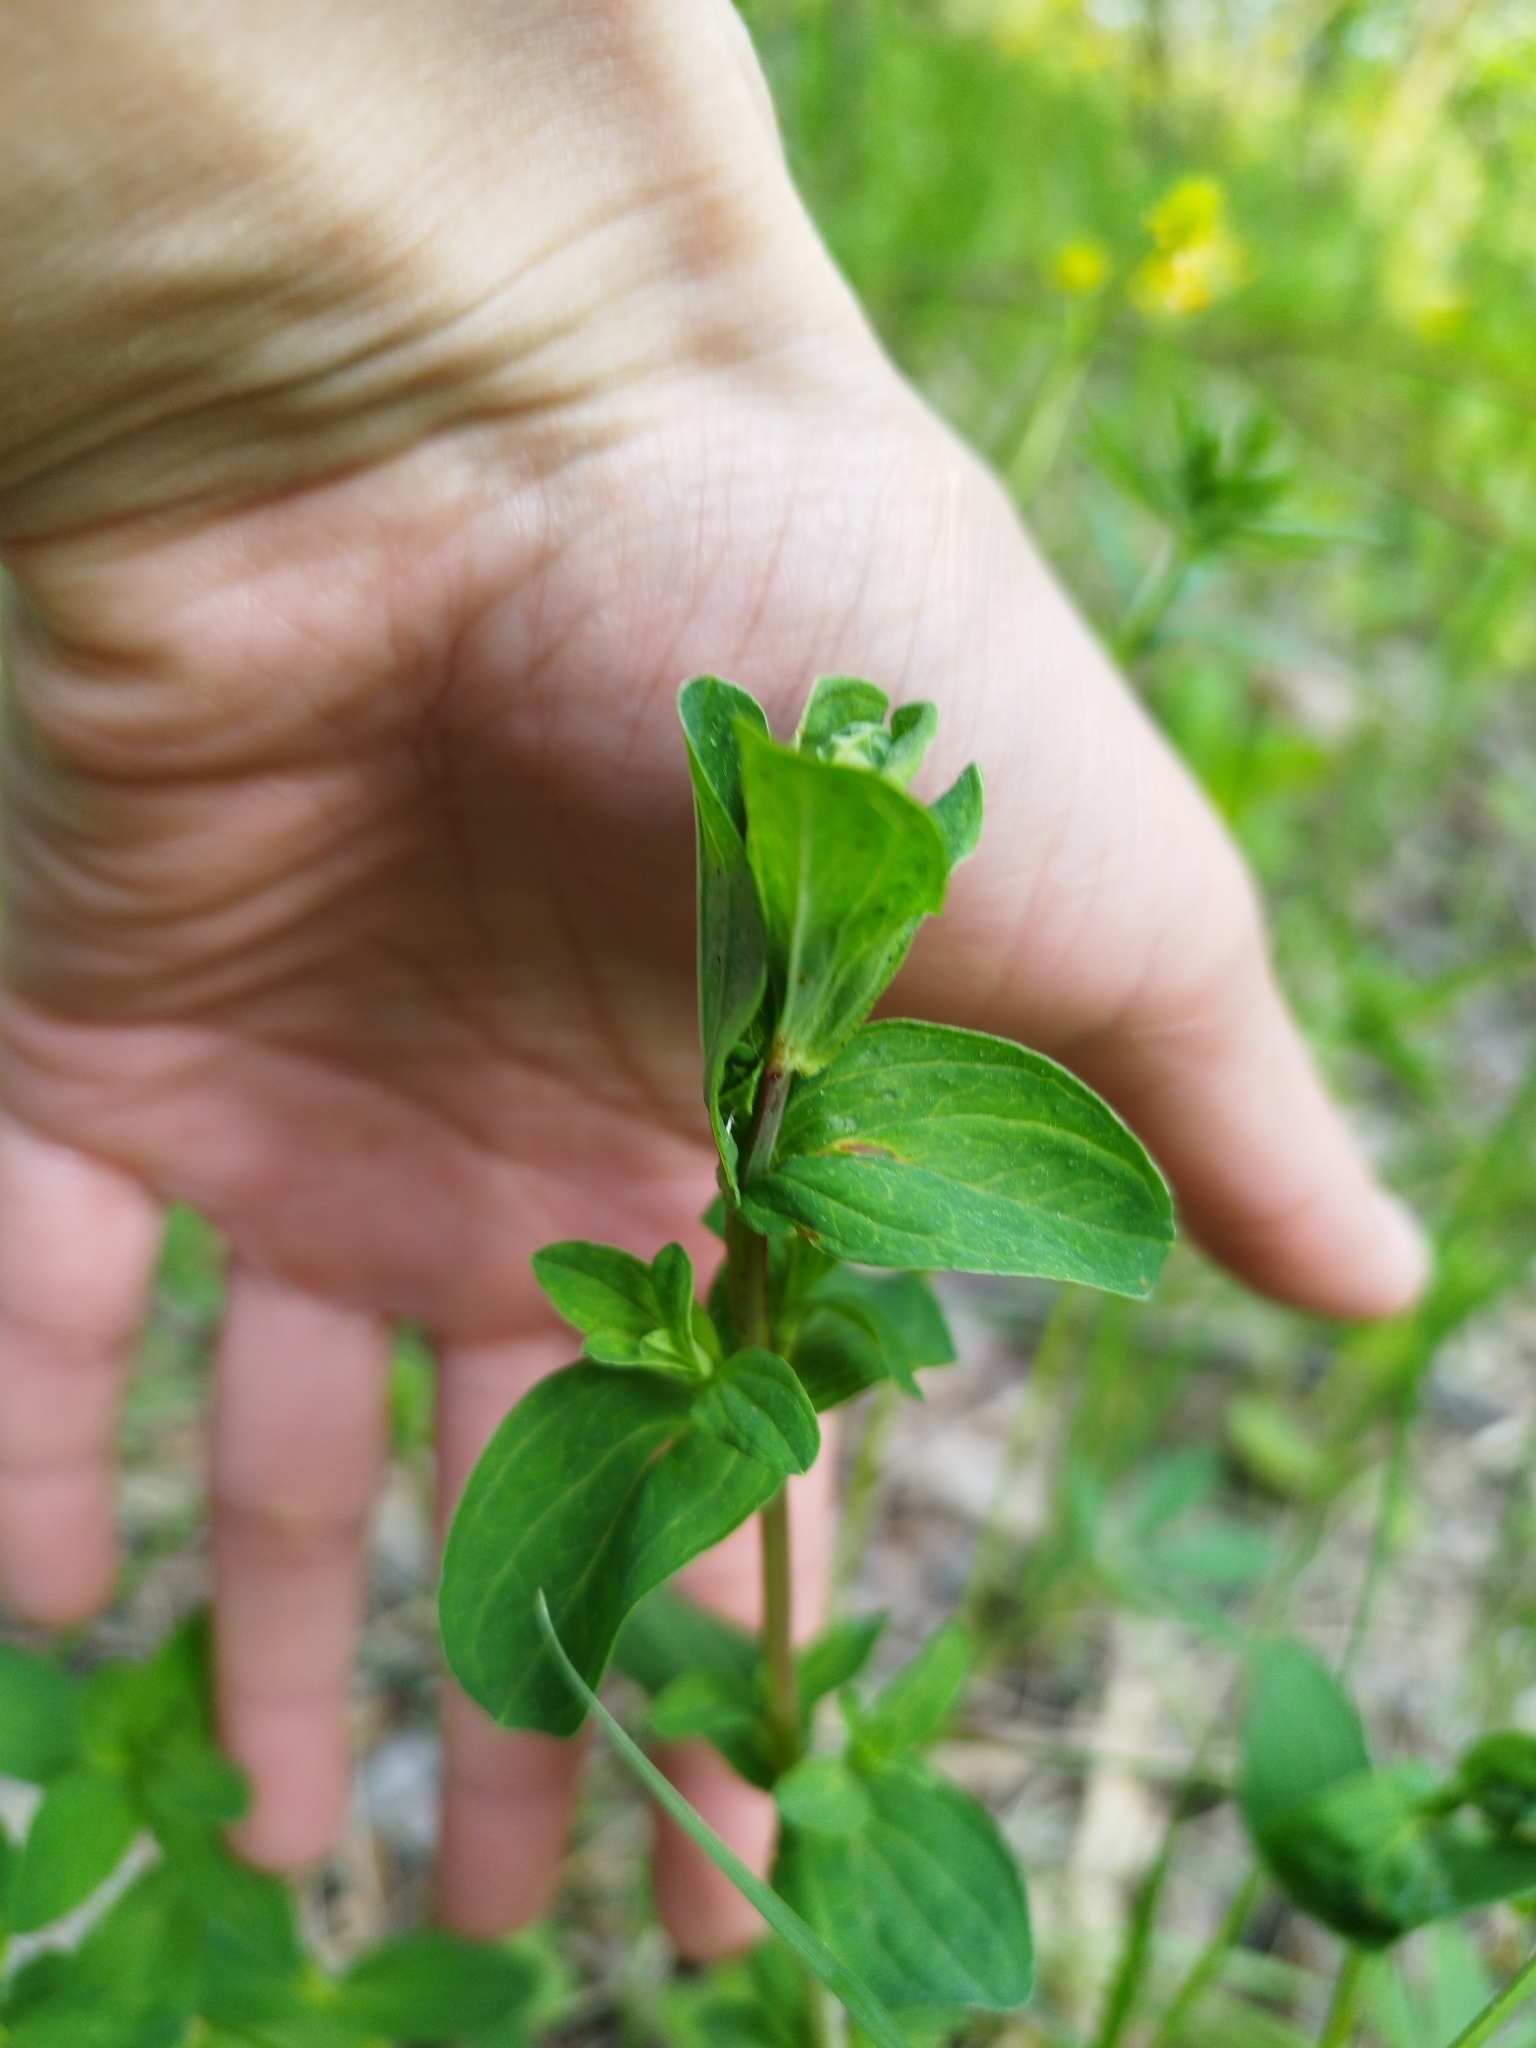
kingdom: Plantae
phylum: Tracheophyta
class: Magnoliopsida
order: Malpighiales
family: Hypericaceae
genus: Hypericum
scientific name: Hypericum perforatum
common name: Common st. johnswort
